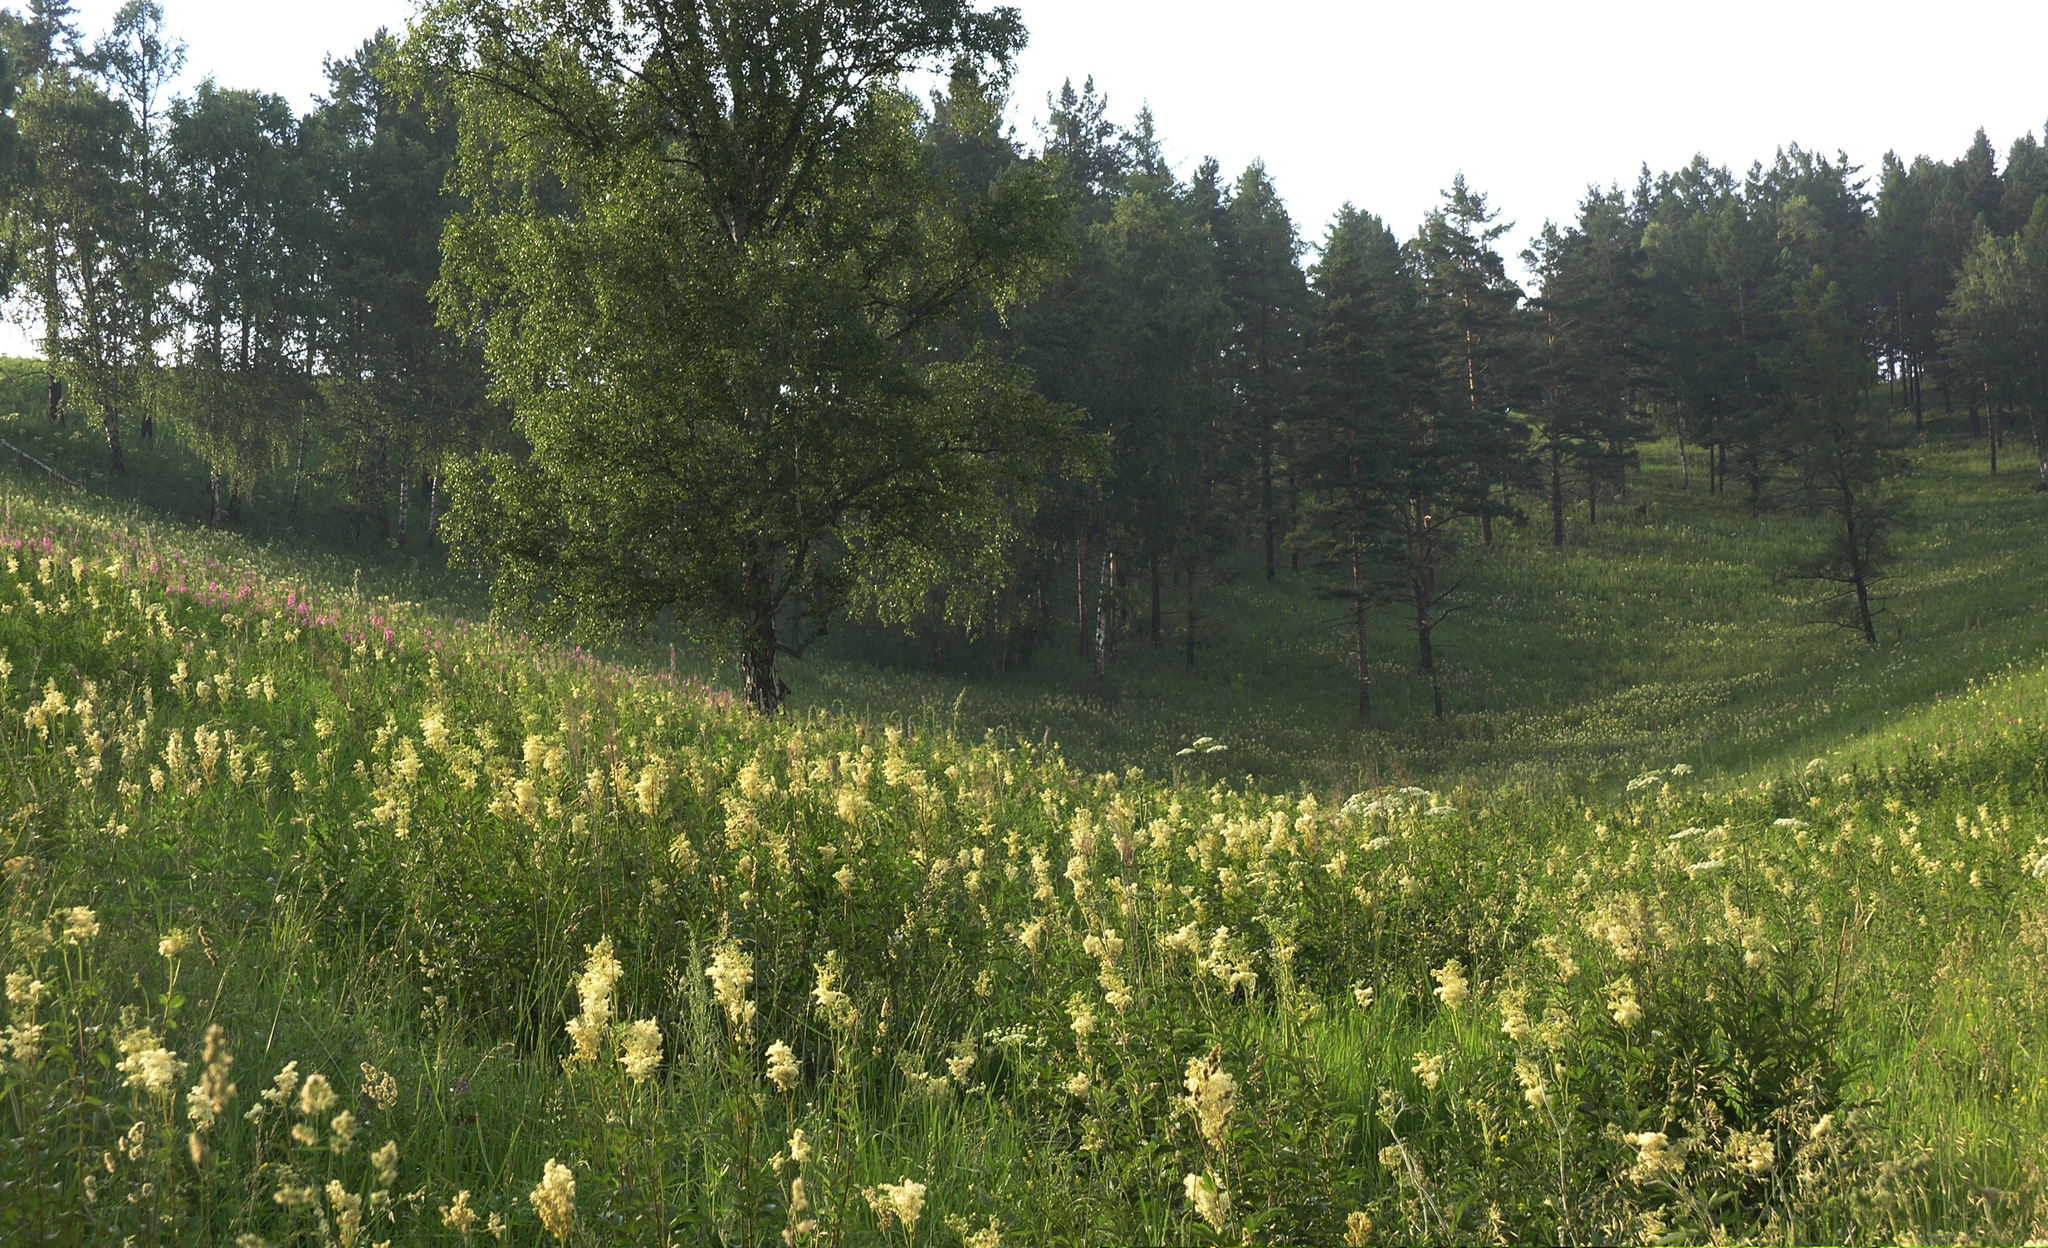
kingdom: Plantae
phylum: Tracheophyta
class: Pinopsida
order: Pinales
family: Pinaceae
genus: Pinus
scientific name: Pinus sylvestris
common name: Scots pine
